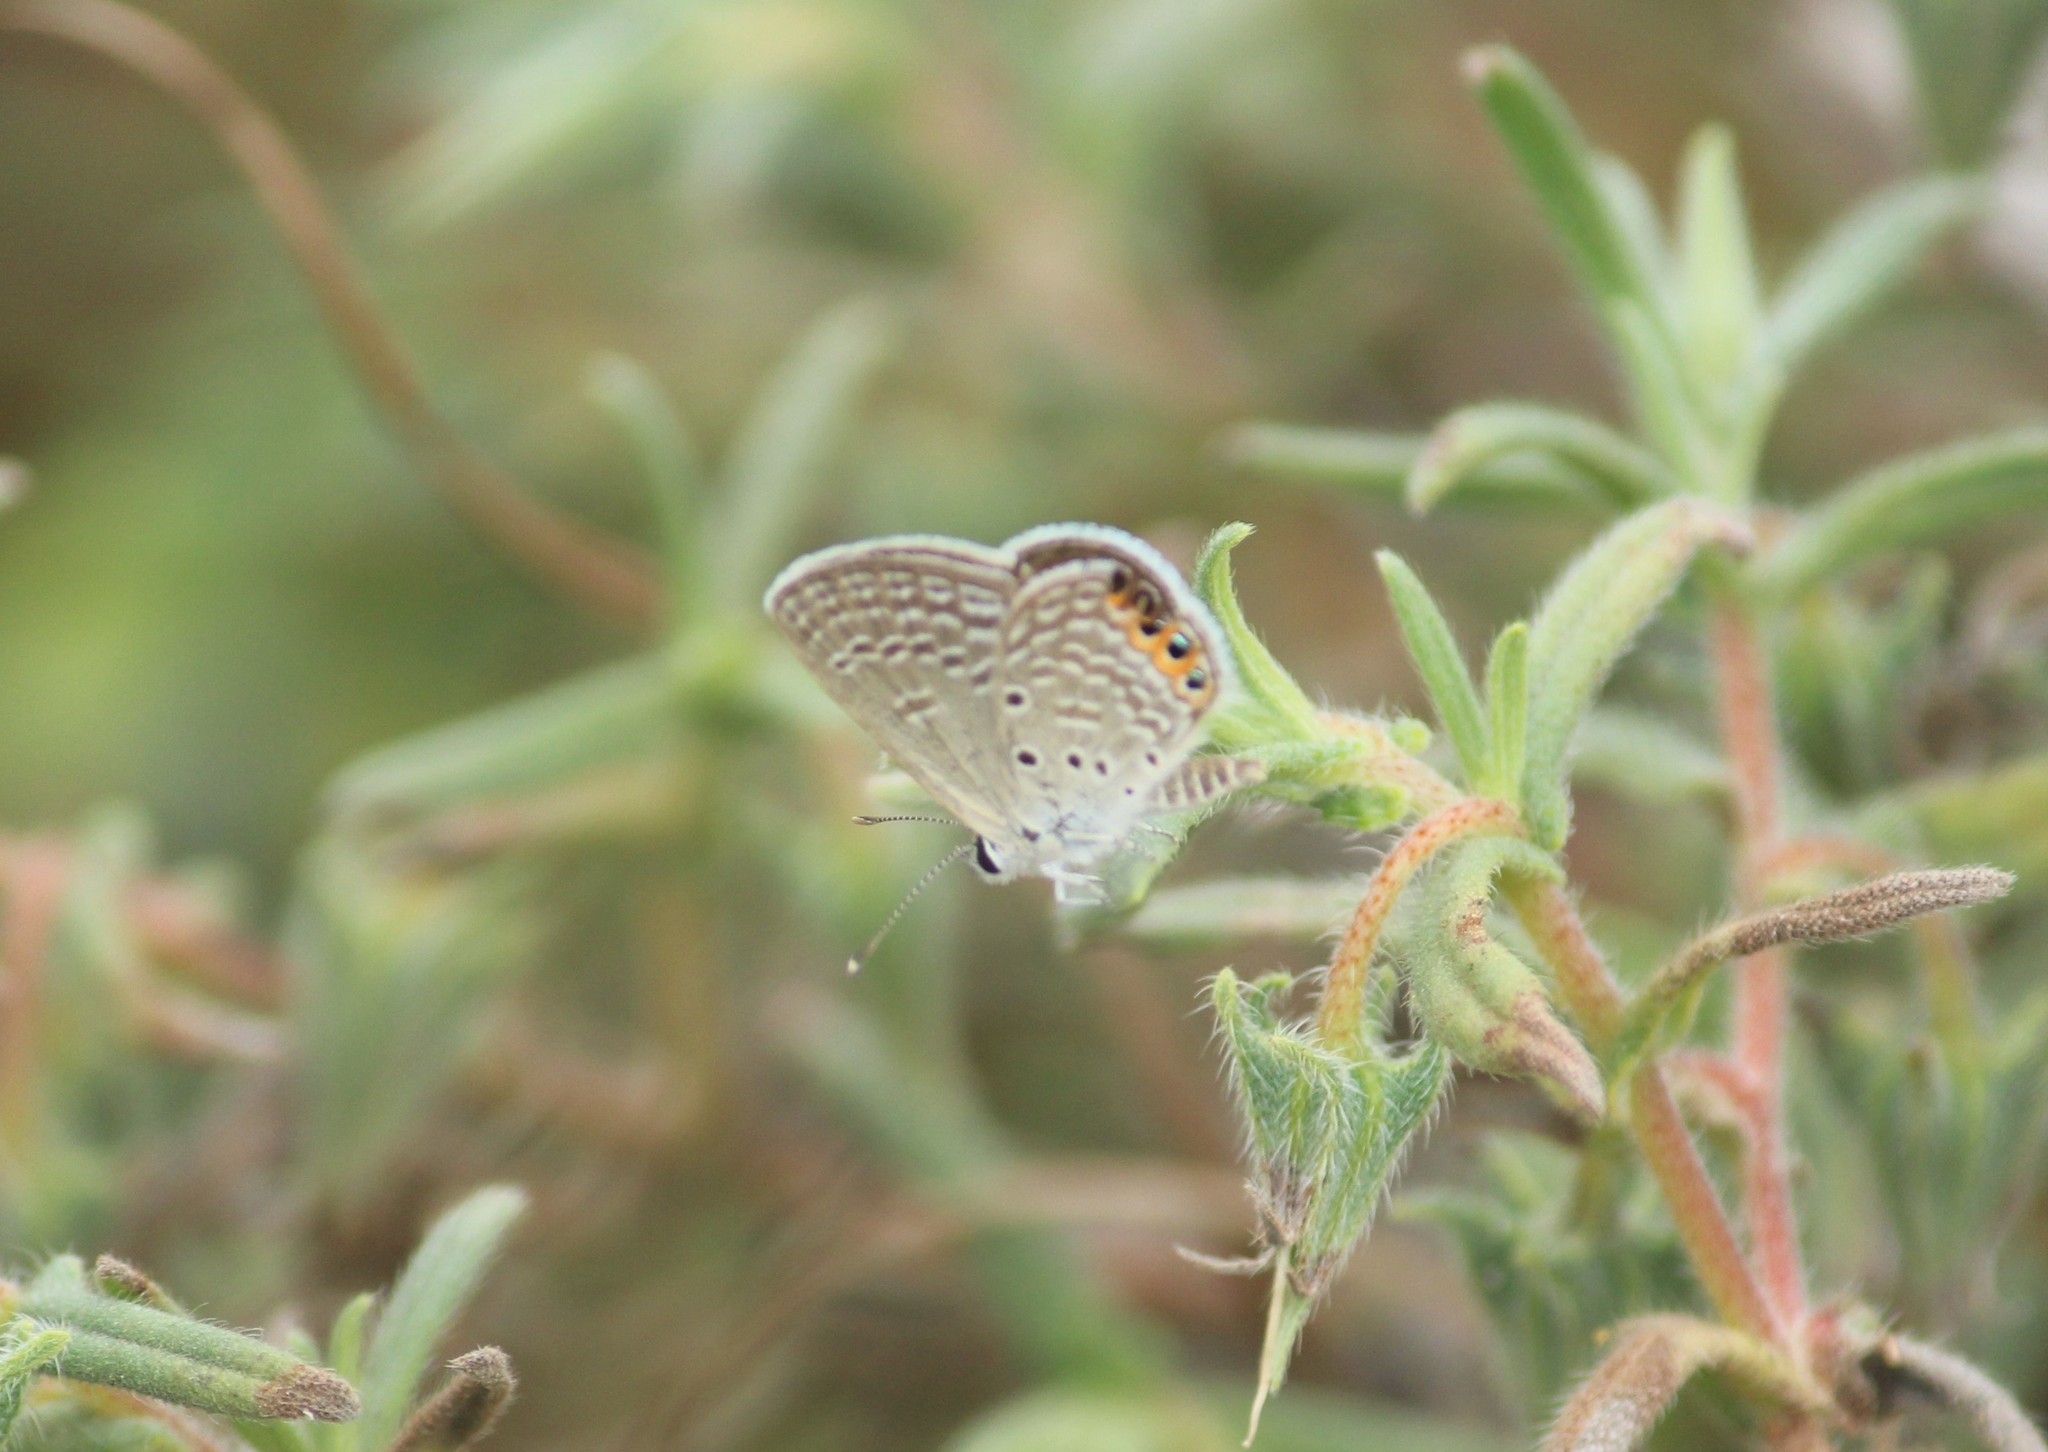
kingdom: Animalia
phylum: Arthropoda
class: Insecta
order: Lepidoptera
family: Lycaenidae
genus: Freyeria
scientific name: Freyeria trochylus
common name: Grass jewel
